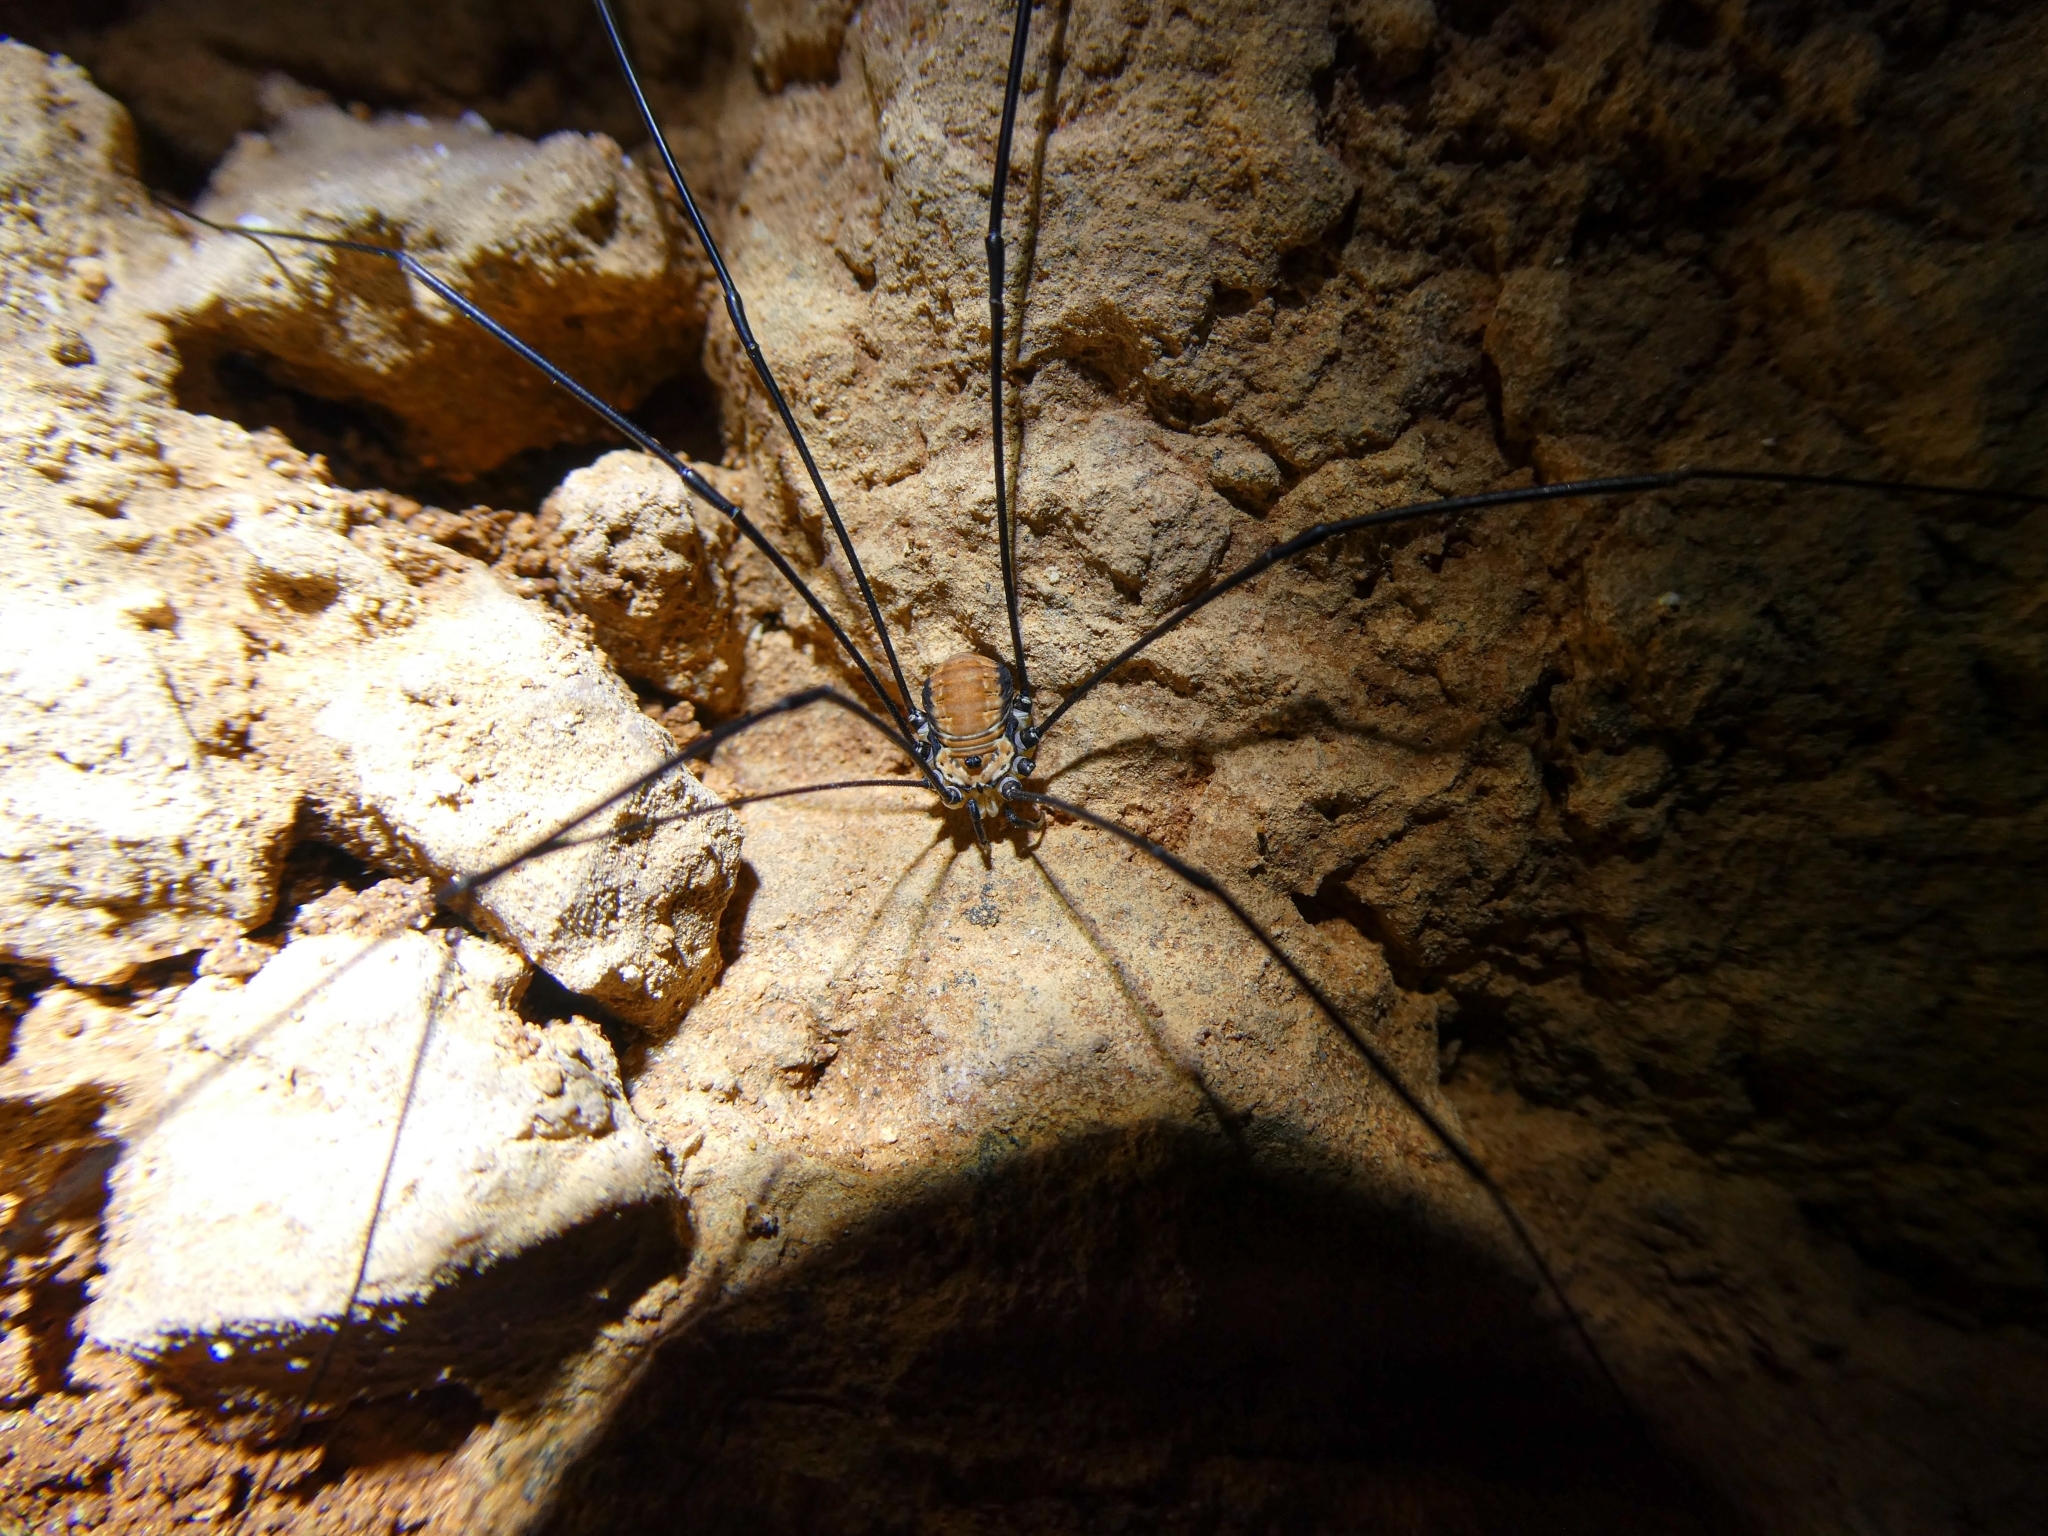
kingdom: Animalia
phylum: Arthropoda
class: Arachnida
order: Opiliones
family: Sclerosomatidae
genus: Leiobunum
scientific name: Leiobunum limbatum
